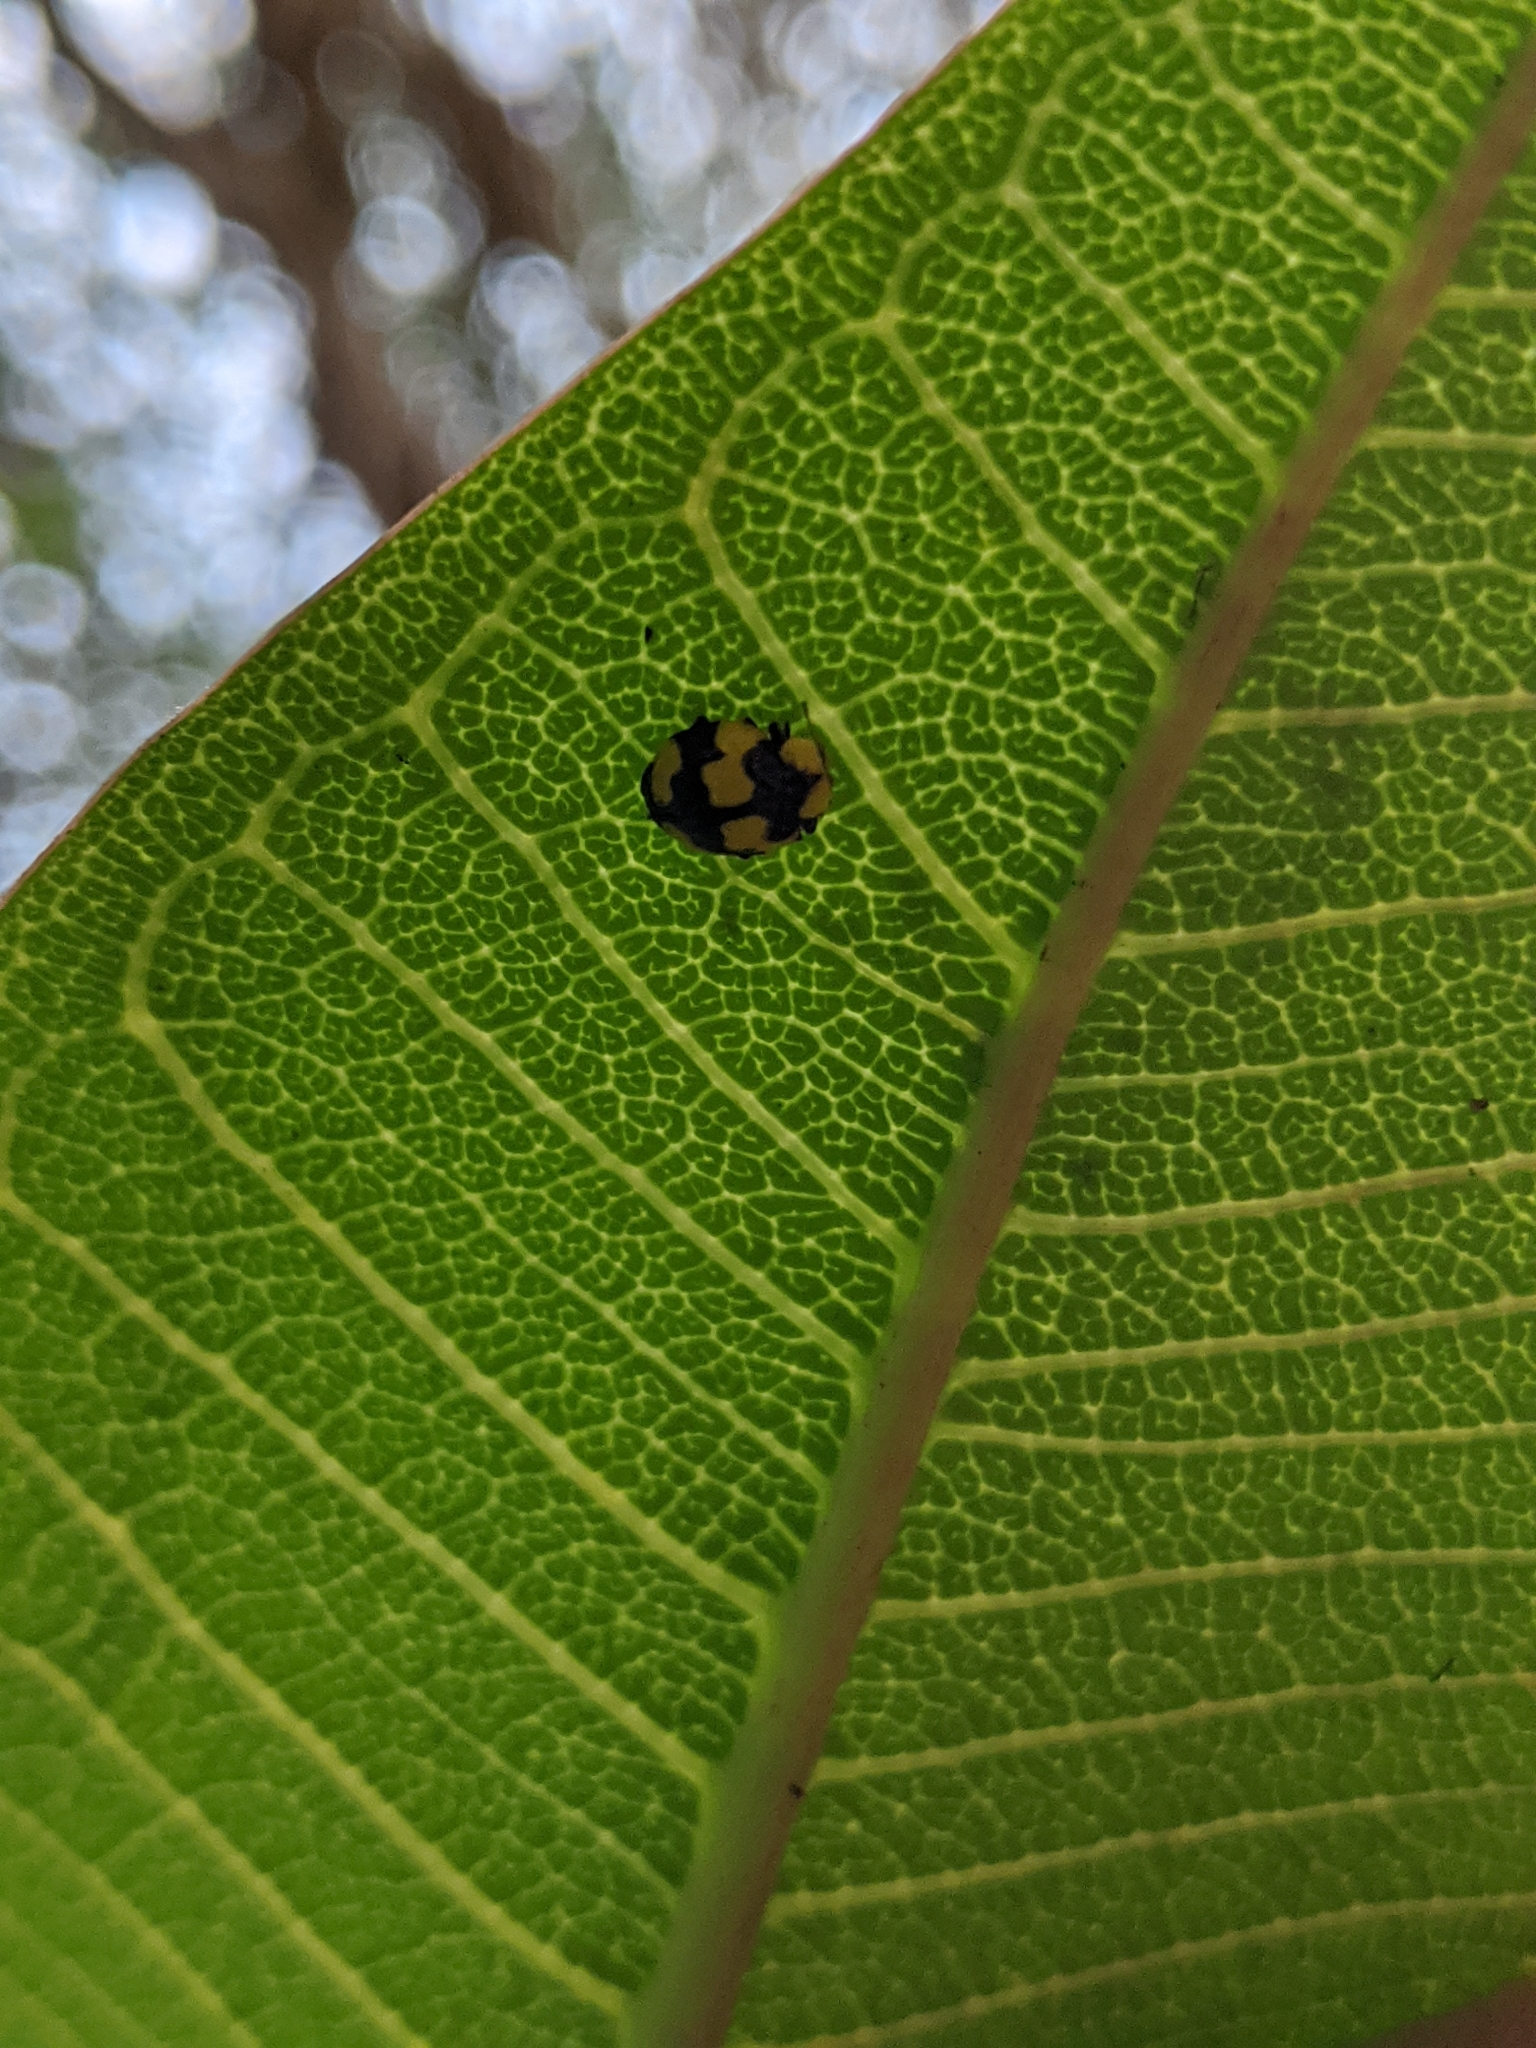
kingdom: Animalia
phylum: Arthropoda
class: Insecta
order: Coleoptera
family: Coccinellidae
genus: Illeis
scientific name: Illeis galbula
